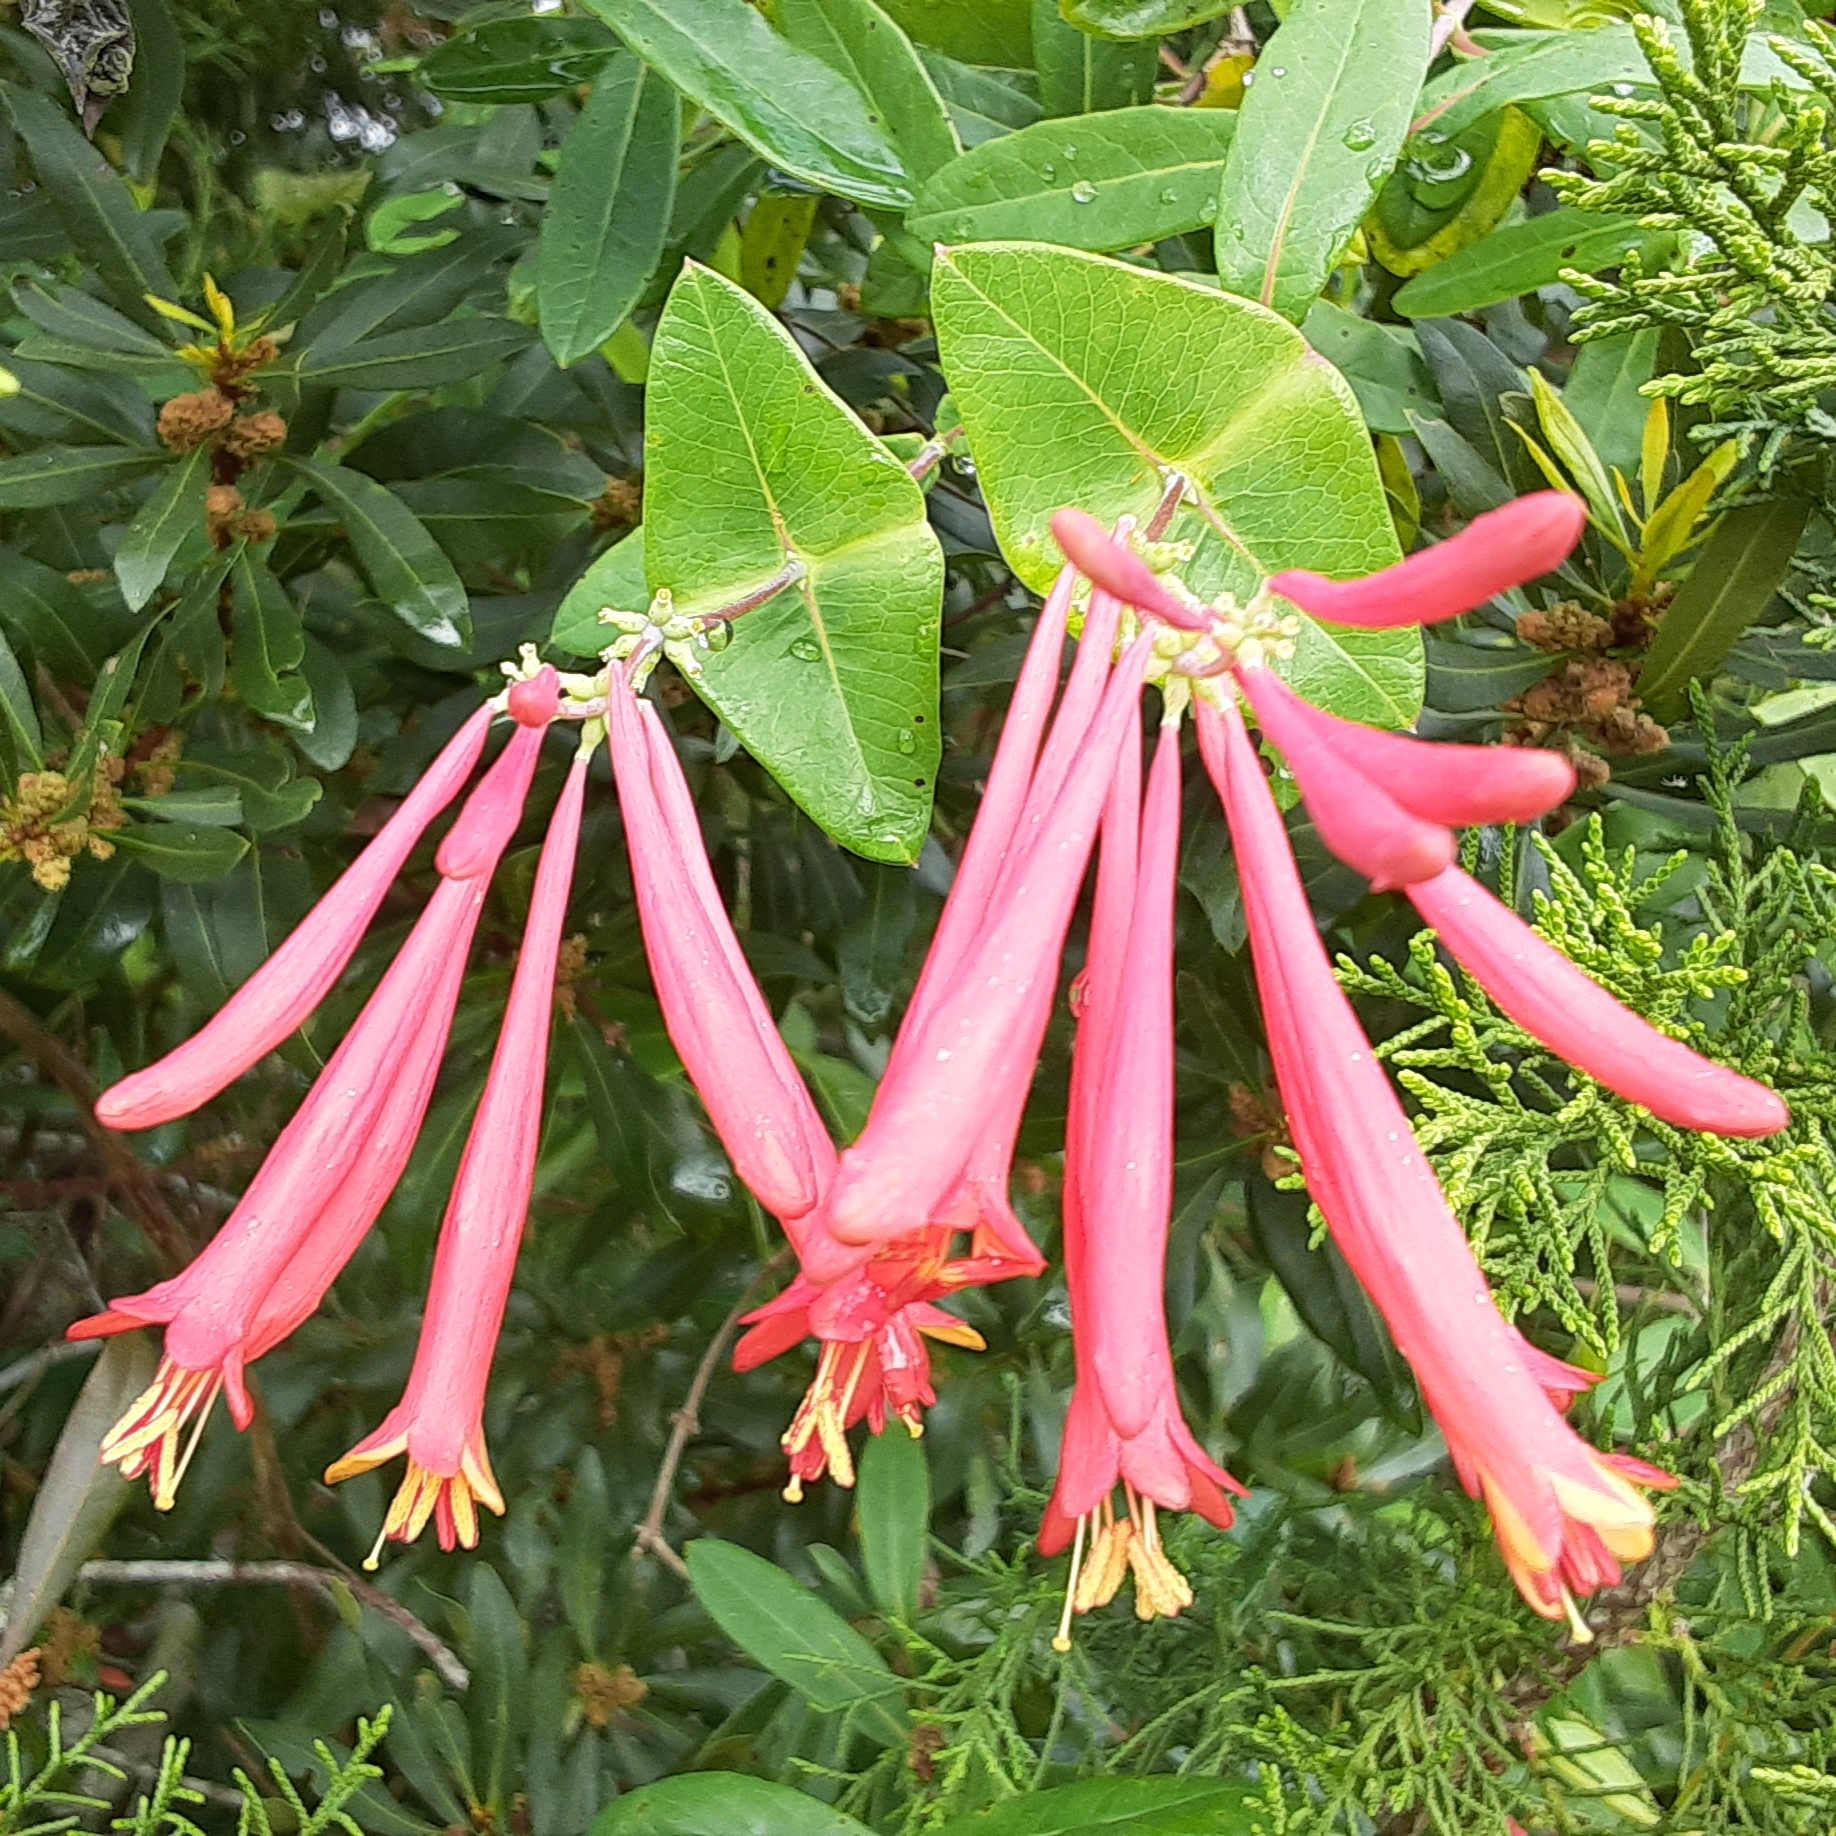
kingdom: Plantae
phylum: Tracheophyta
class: Magnoliopsida
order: Dipsacales
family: Caprifoliaceae
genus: Lonicera
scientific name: Lonicera sempervirens
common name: Coral honeysuckle
